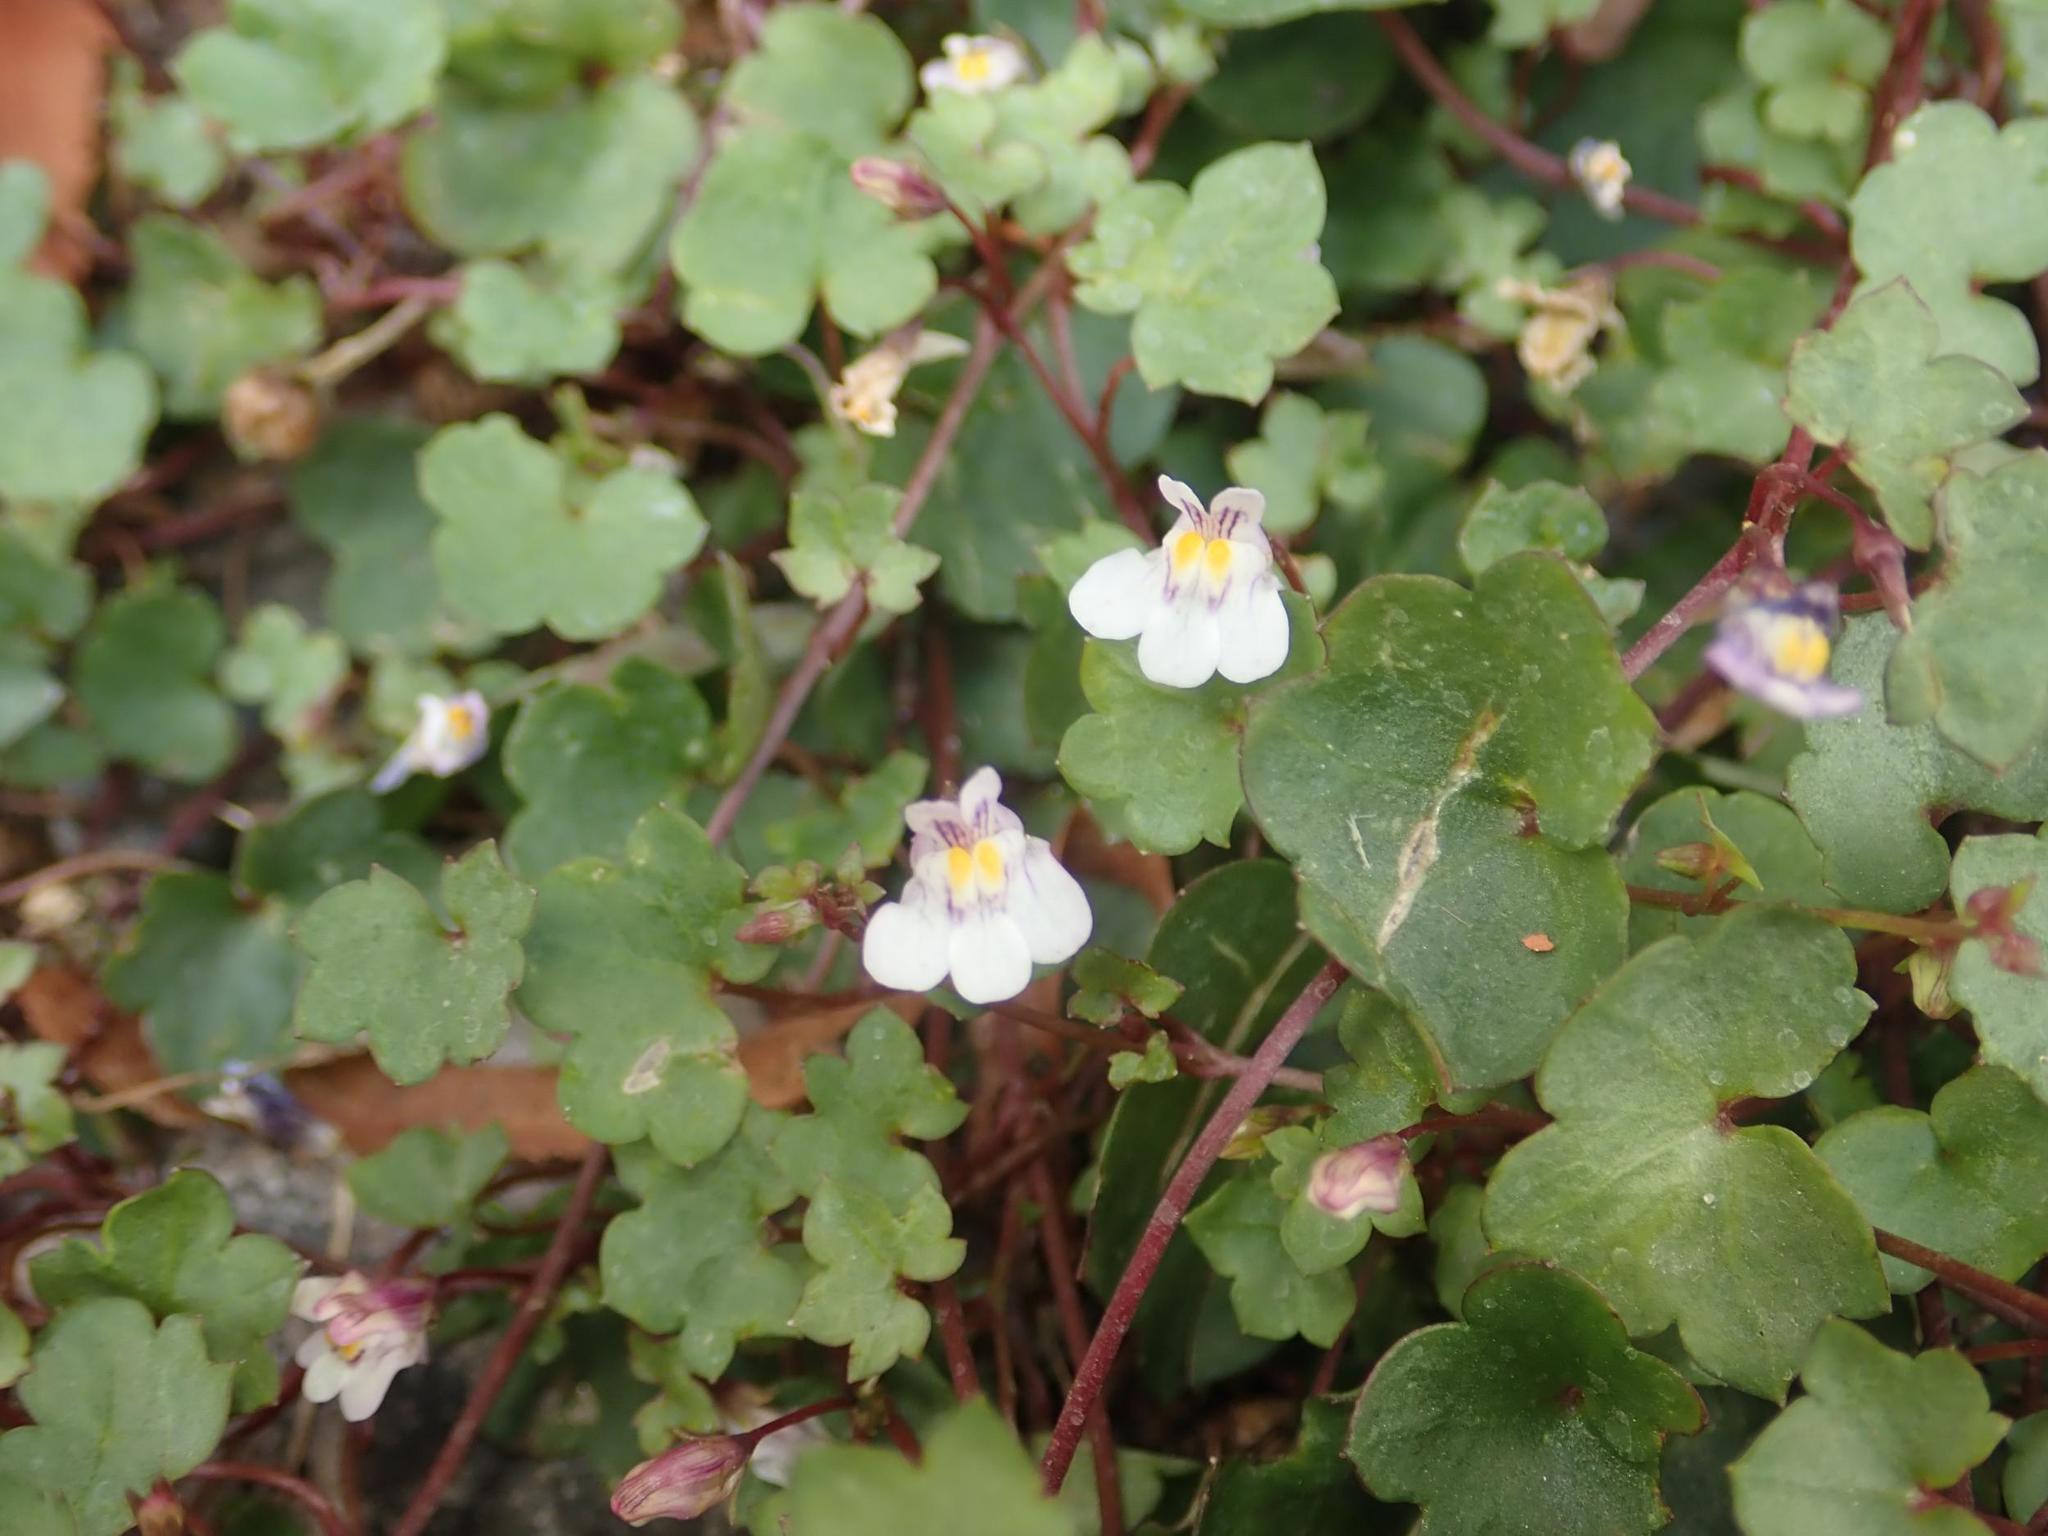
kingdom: Plantae
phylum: Tracheophyta
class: Magnoliopsida
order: Lamiales
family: Plantaginaceae
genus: Cymbalaria
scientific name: Cymbalaria muralis
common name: Ivy-leaved toadflax
